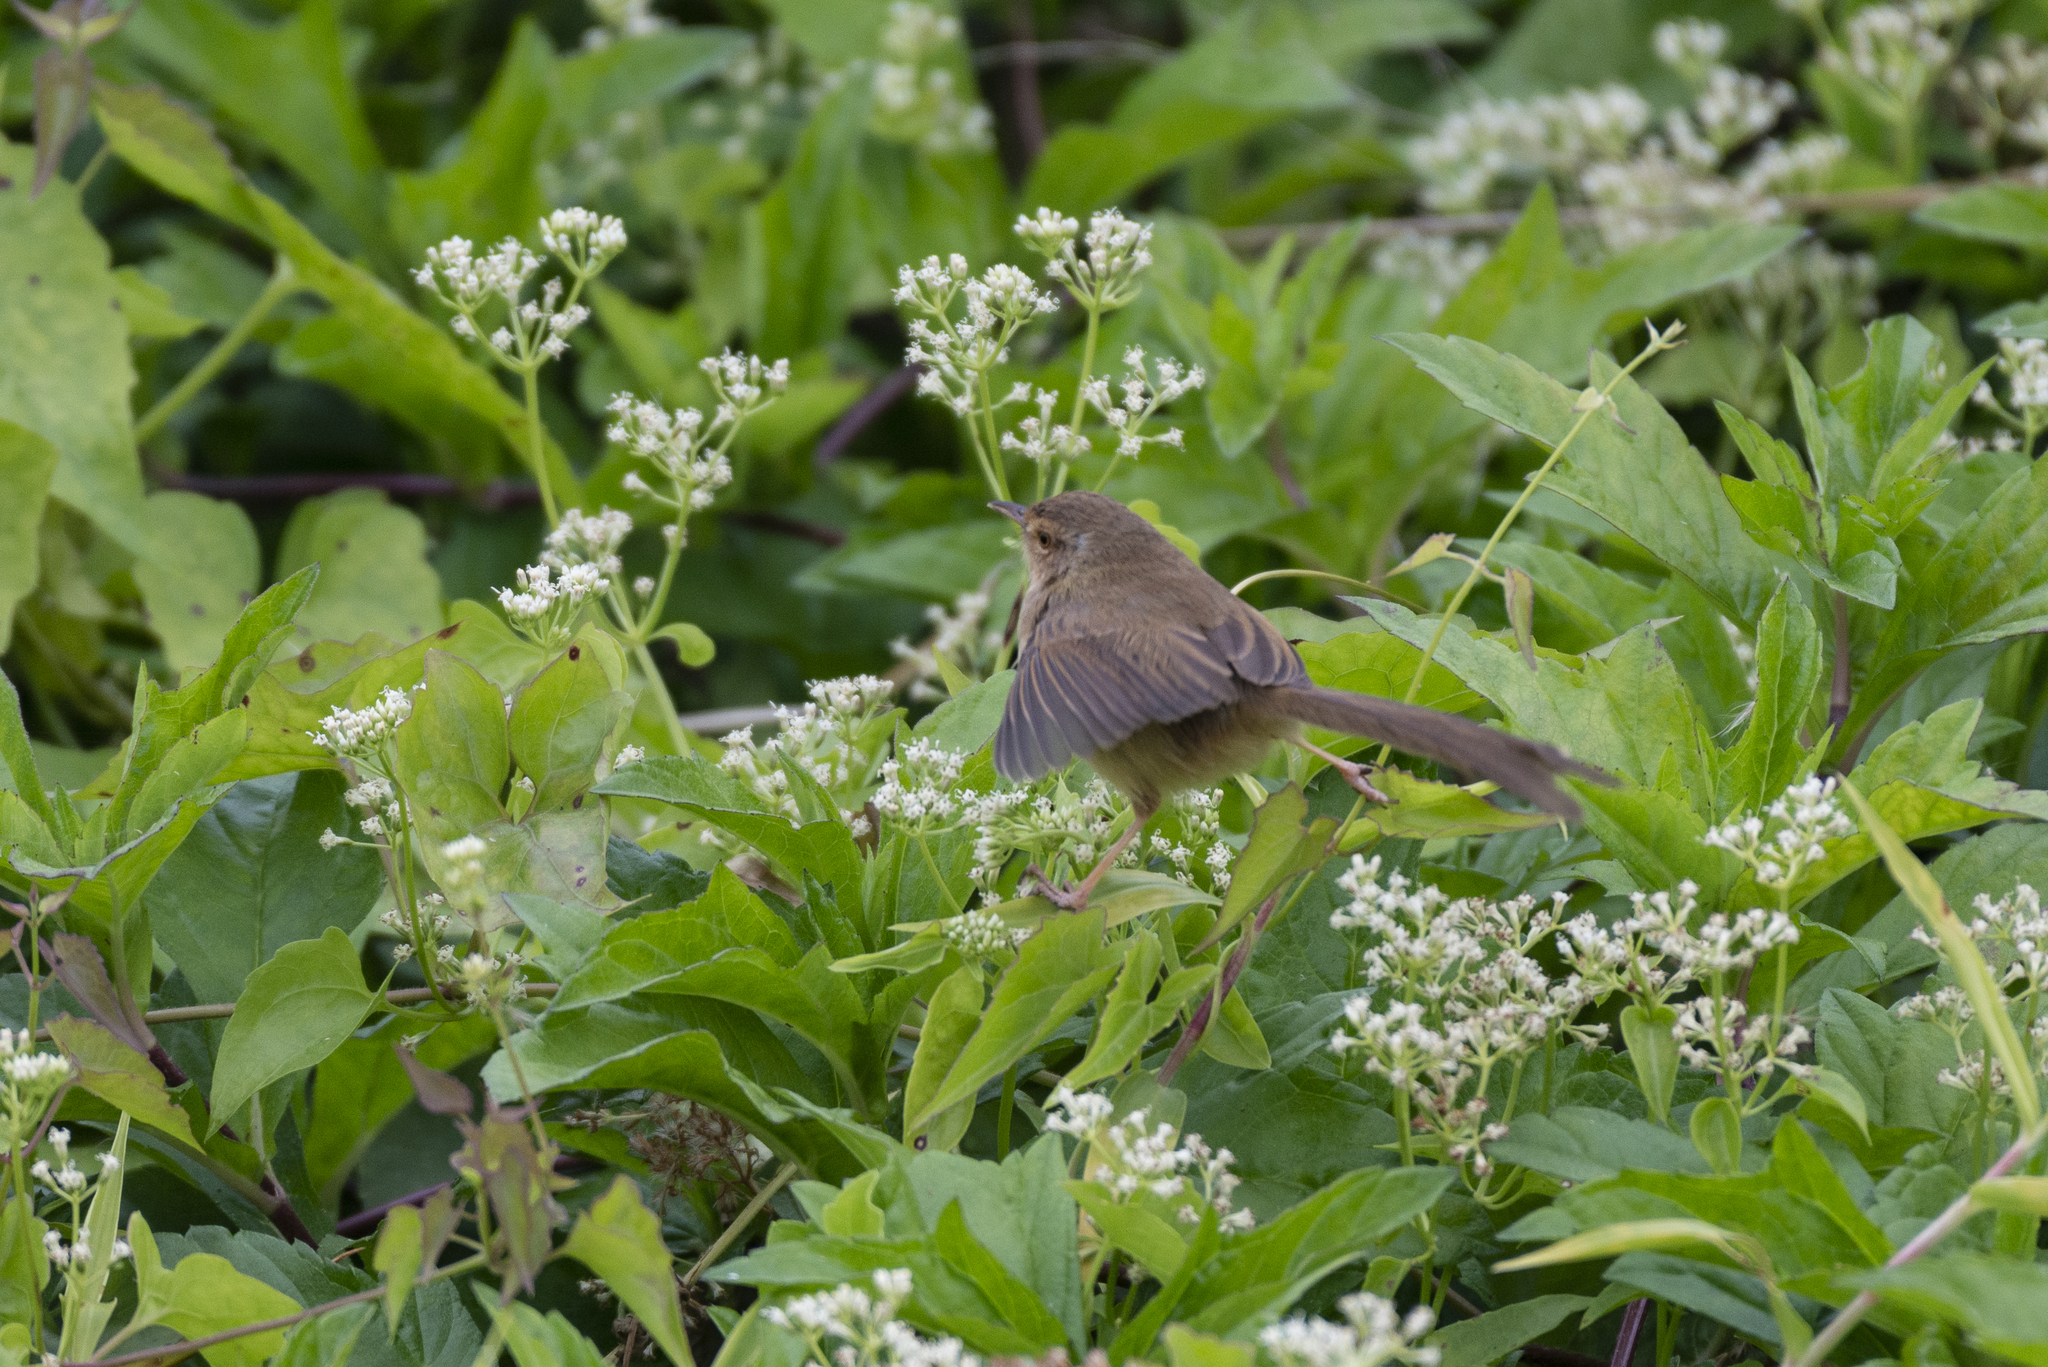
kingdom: Animalia
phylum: Chordata
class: Aves
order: Passeriformes
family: Cisticolidae
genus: Prinia
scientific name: Prinia inornata
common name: Plain prinia
